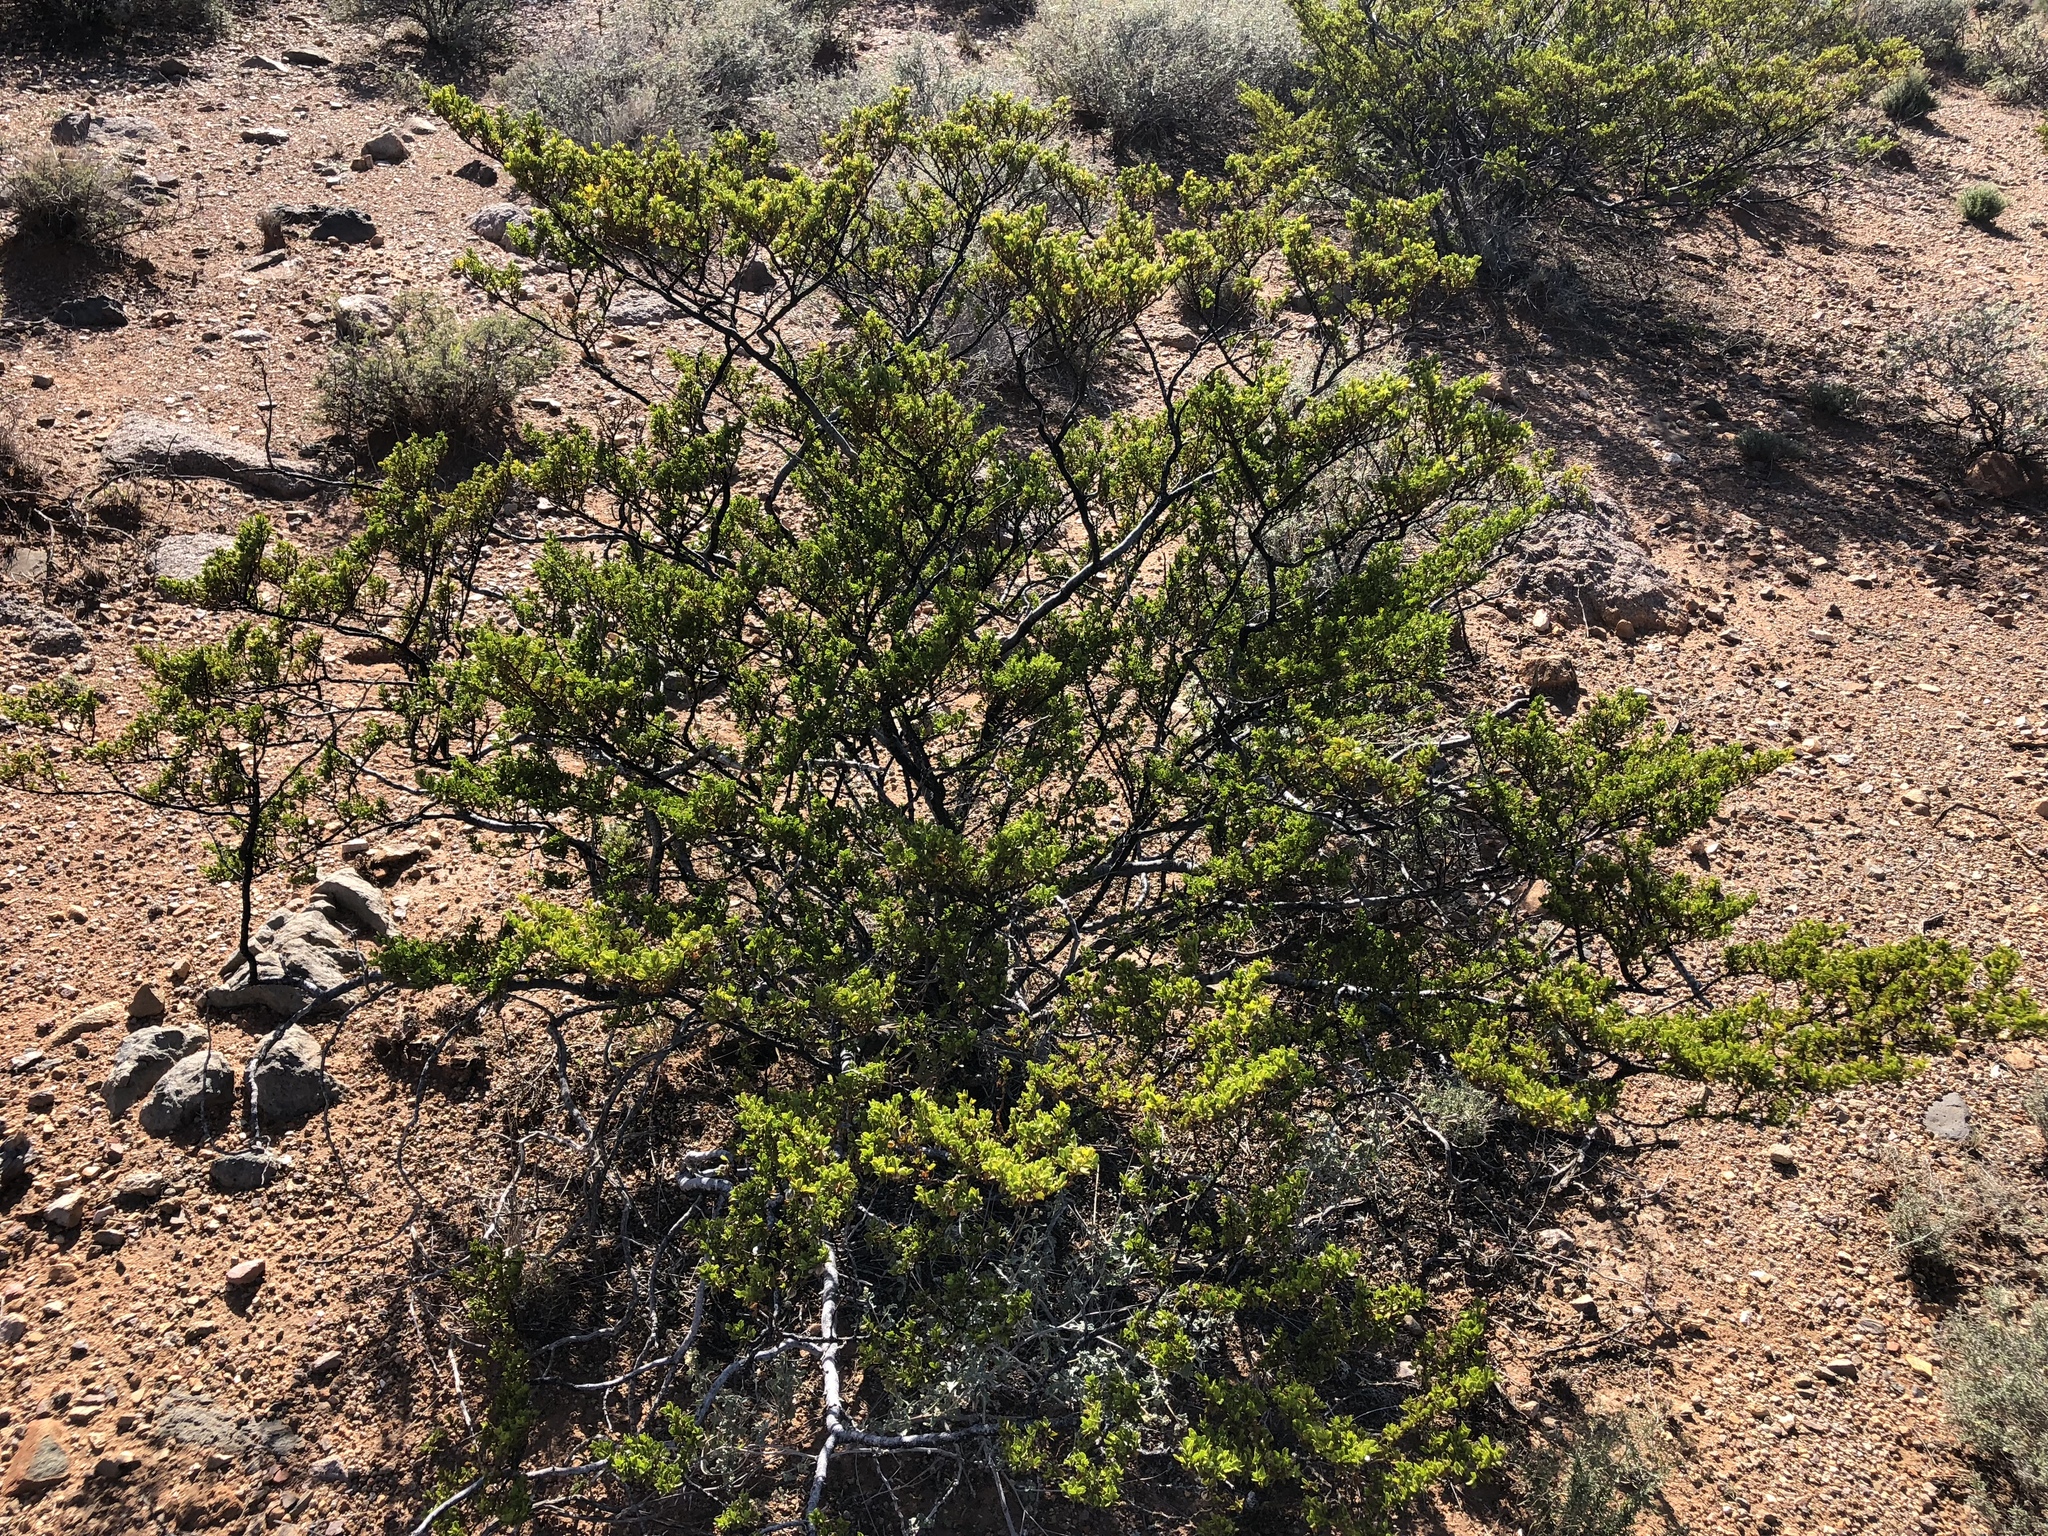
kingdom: Plantae
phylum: Tracheophyta
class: Magnoliopsida
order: Zygophyllales
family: Zygophyllaceae
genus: Larrea
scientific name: Larrea tridentata
